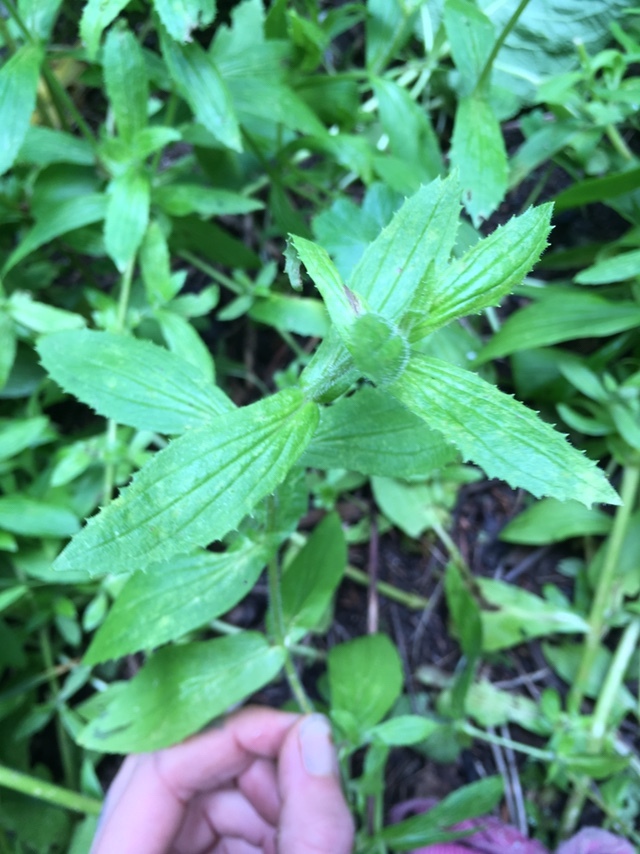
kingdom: Plantae
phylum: Tracheophyta
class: Magnoliopsida
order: Lamiales
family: Phrymaceae
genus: Erythranthe
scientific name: Erythranthe cinnabarina
